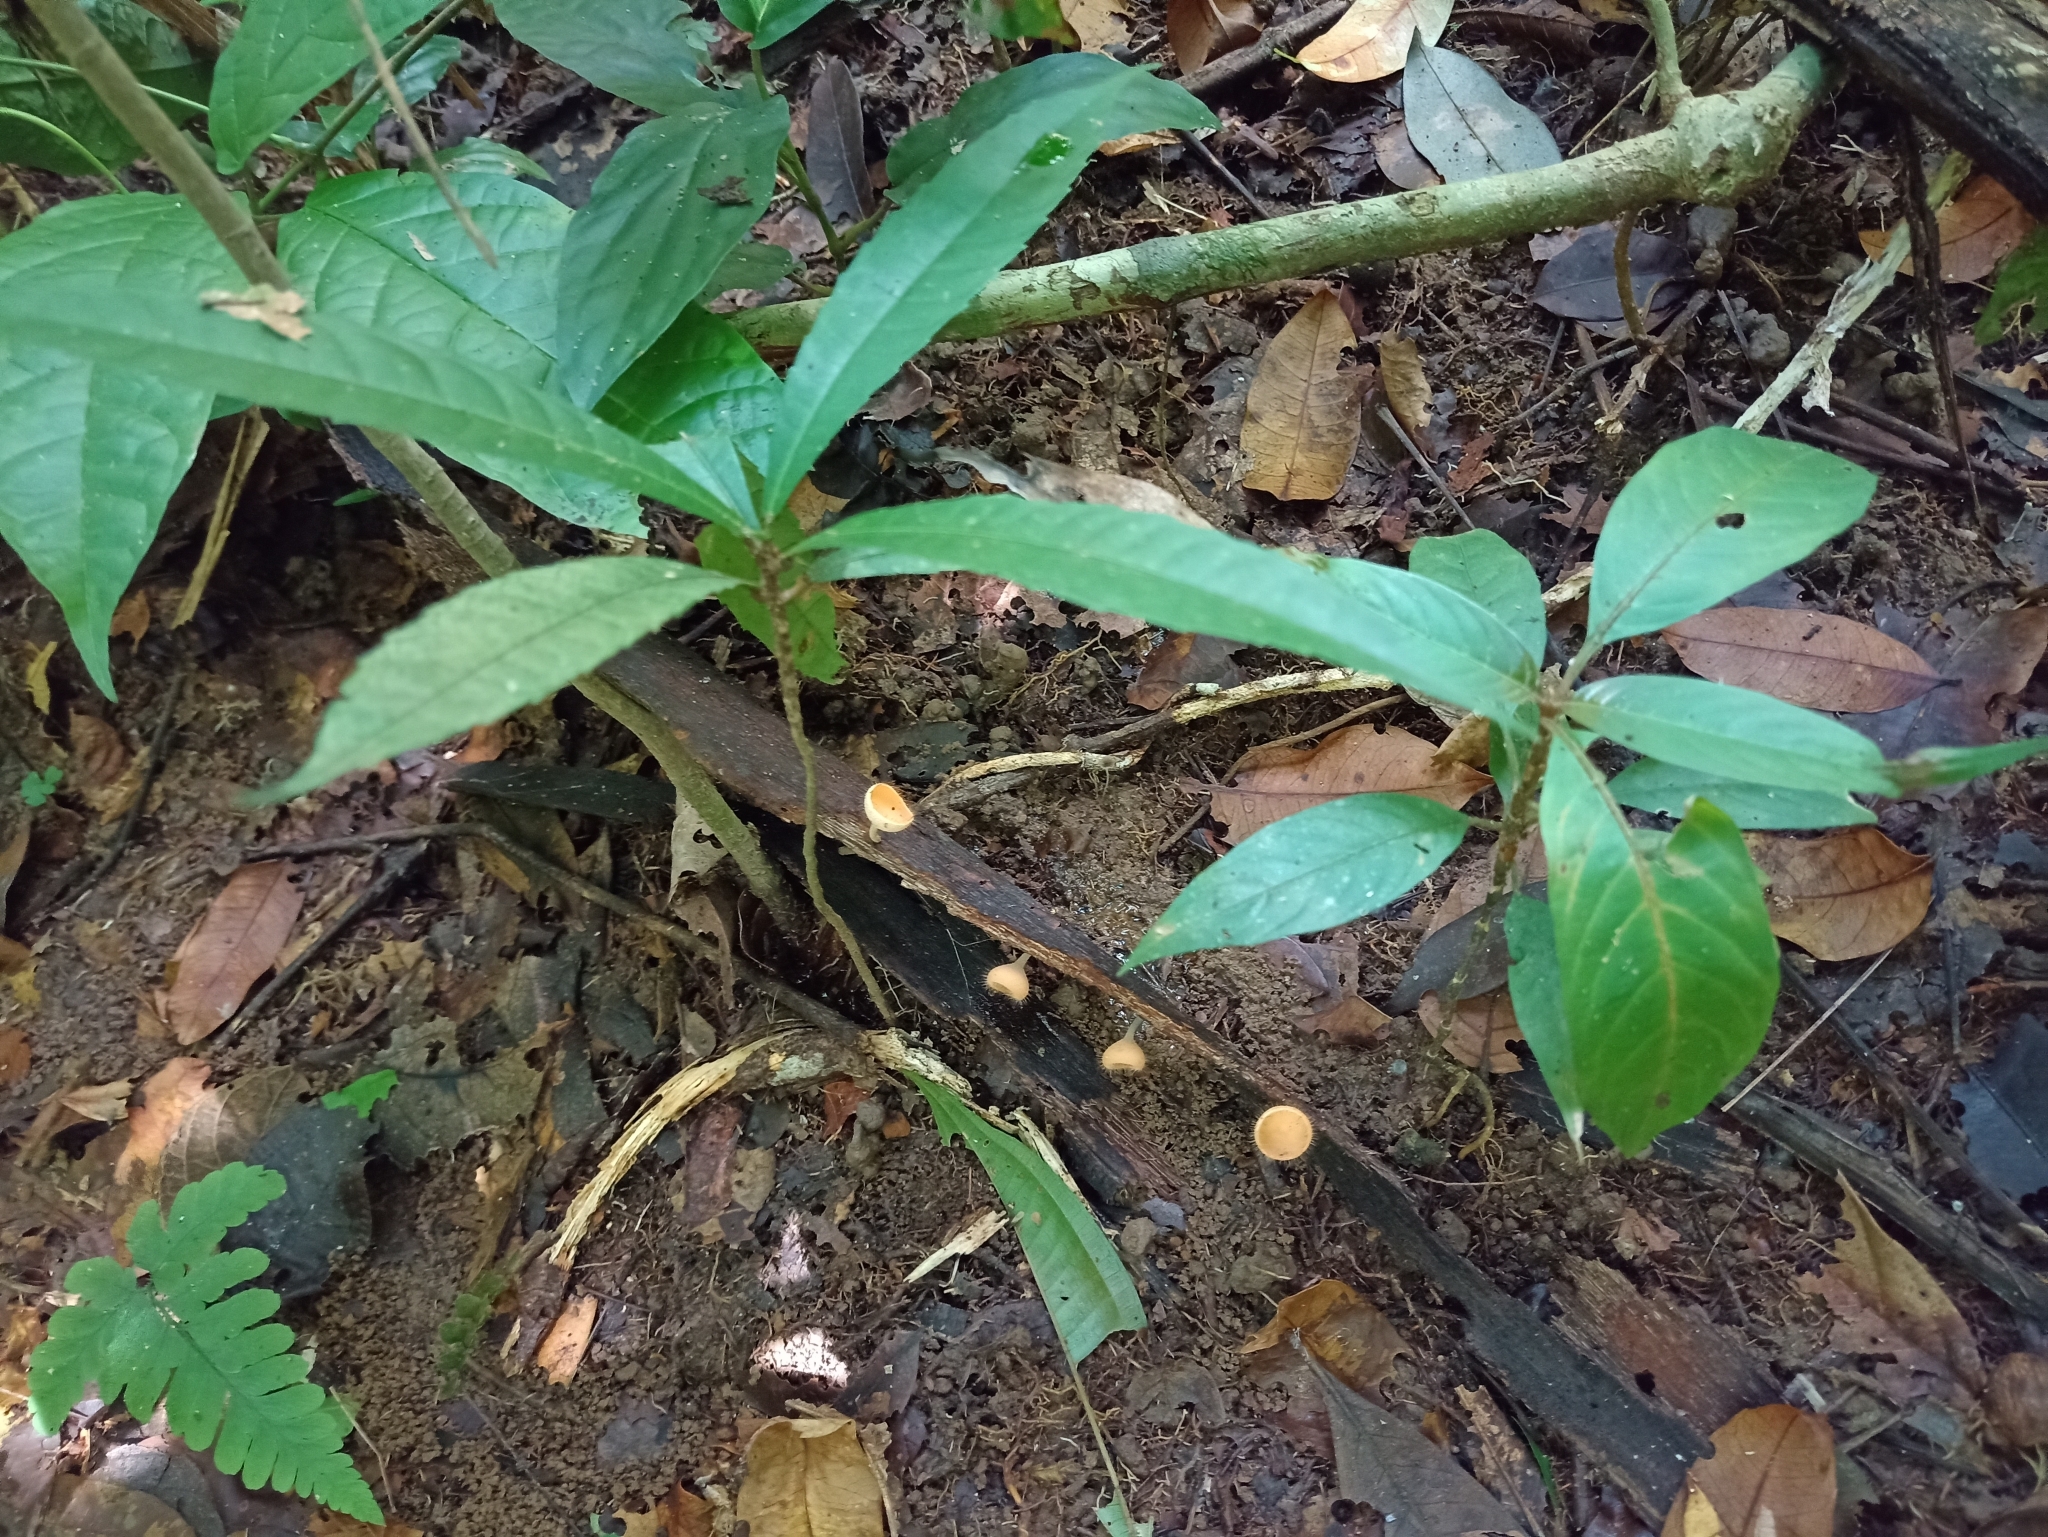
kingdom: Fungi
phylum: Ascomycota
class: Pezizomycetes
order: Pezizales
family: Sarcoscyphaceae
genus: Cookeina
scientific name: Cookeina tricholoma
